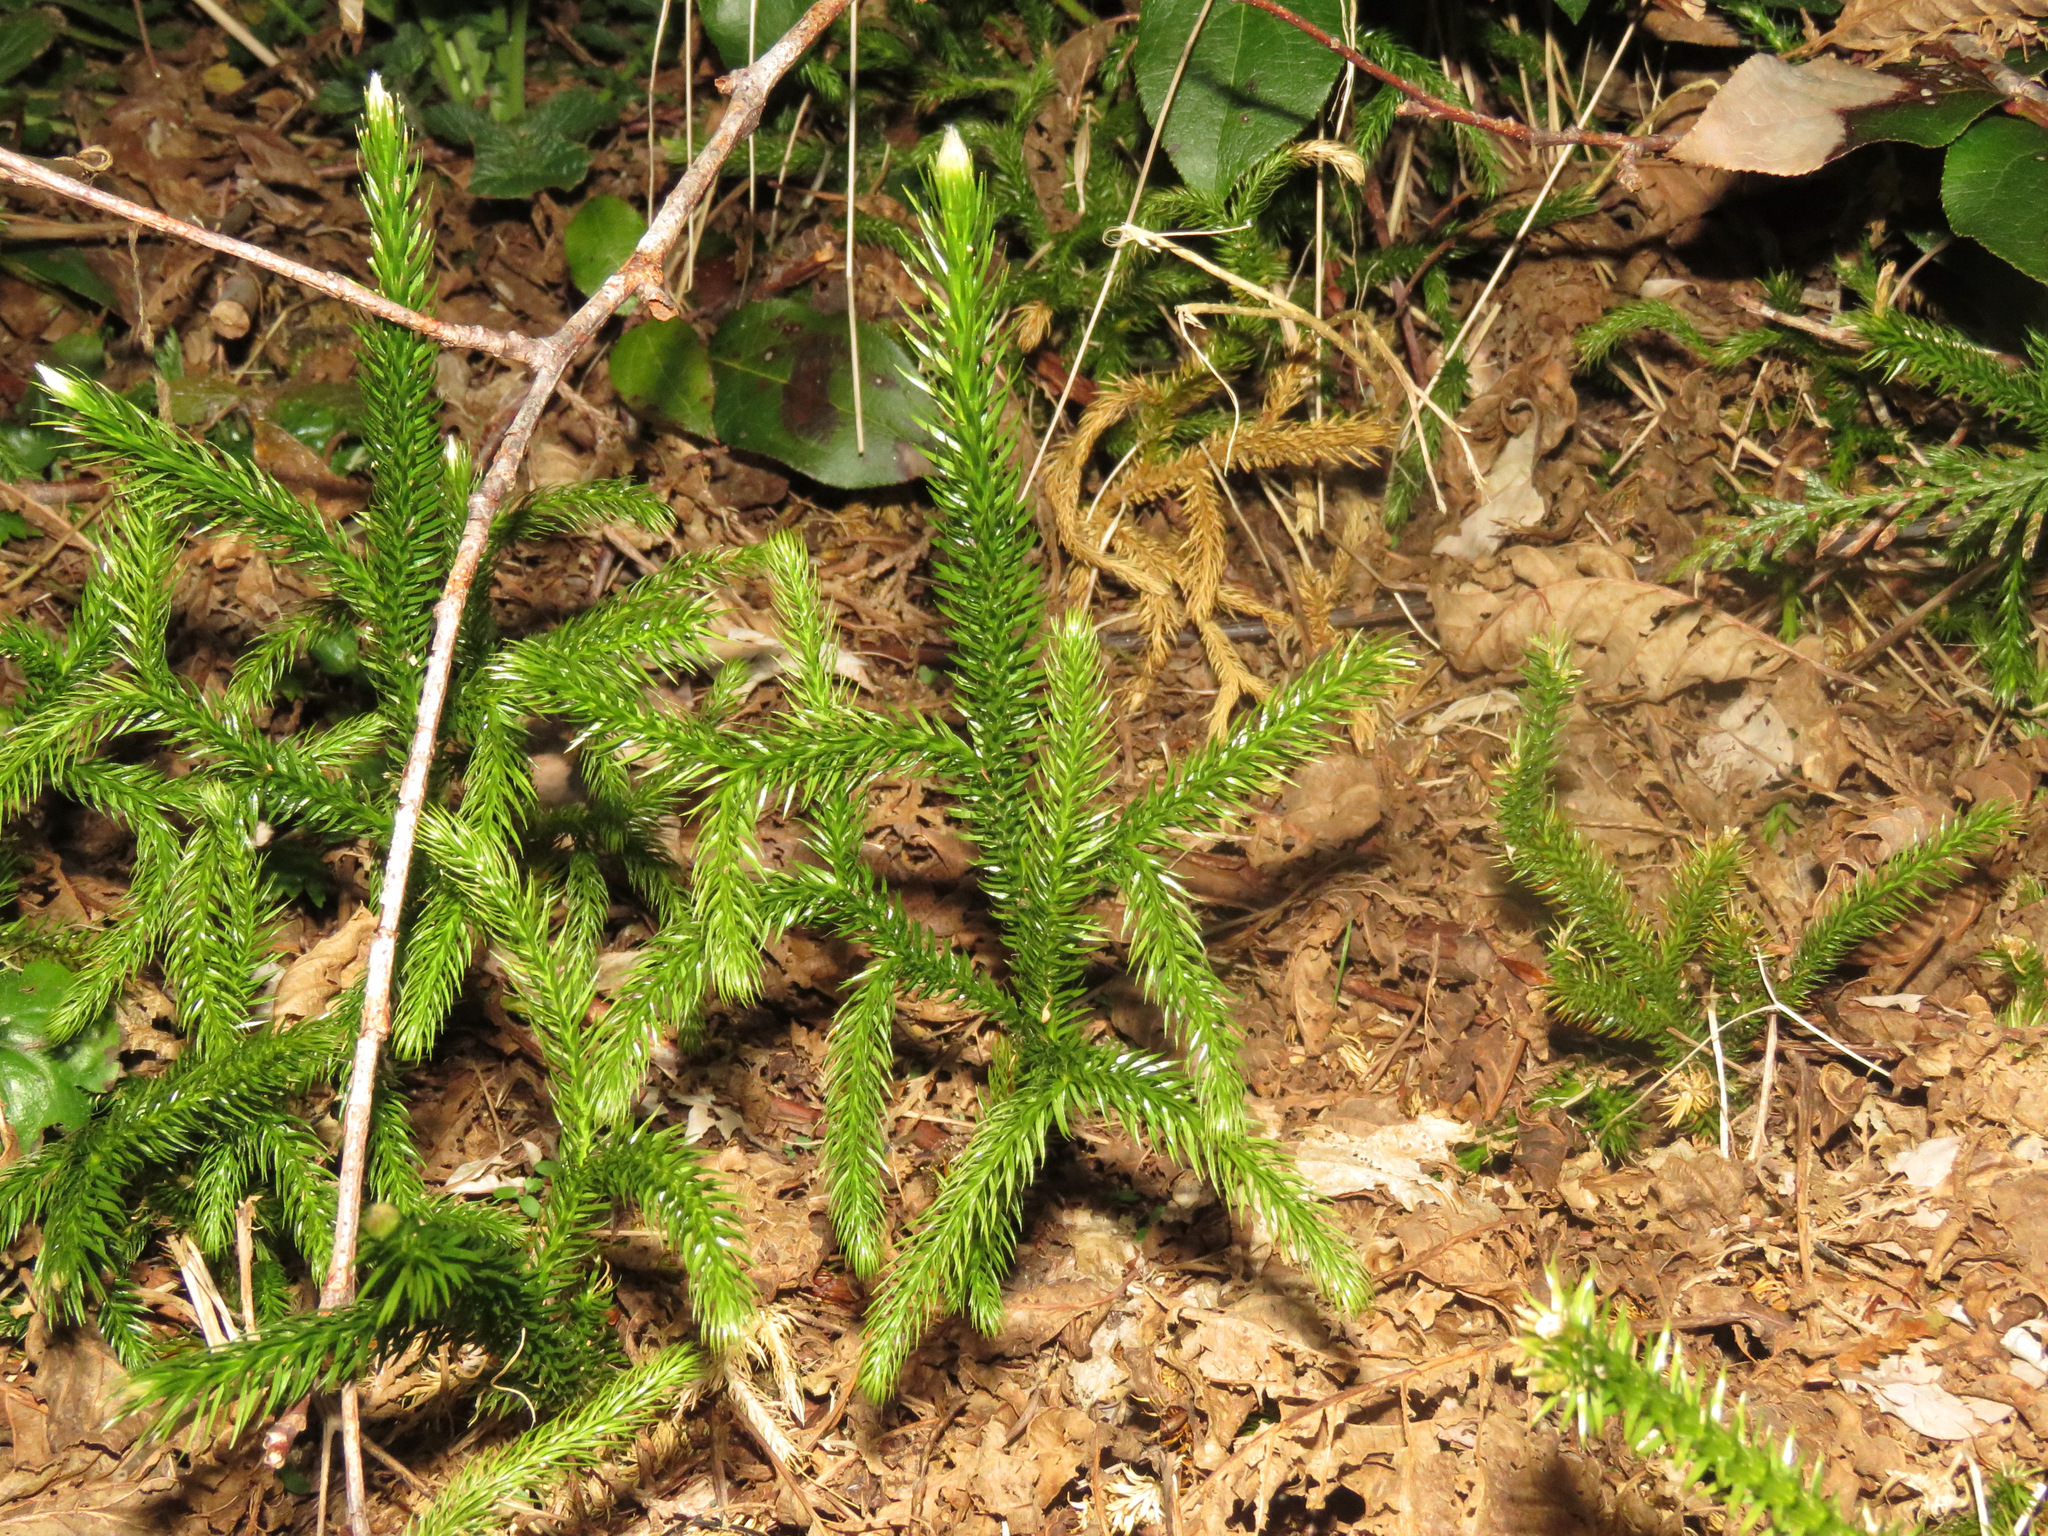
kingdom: Plantae
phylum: Tracheophyta
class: Lycopodiopsida
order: Lycopodiales
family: Lycopodiaceae
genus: Lycopodium
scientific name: Lycopodium clavatum
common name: Stag's-horn clubmoss
